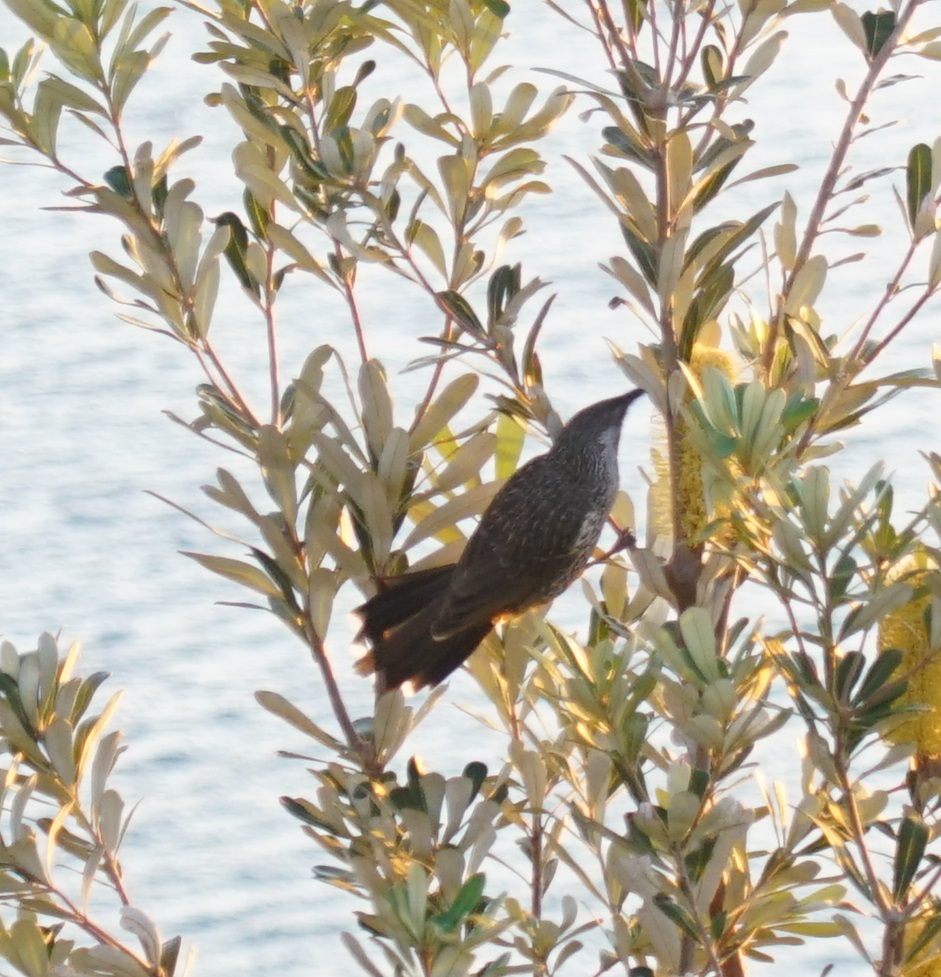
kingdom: Animalia
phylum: Chordata
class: Aves
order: Passeriformes
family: Meliphagidae
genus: Anthochaera
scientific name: Anthochaera chrysoptera
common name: Little wattlebird
